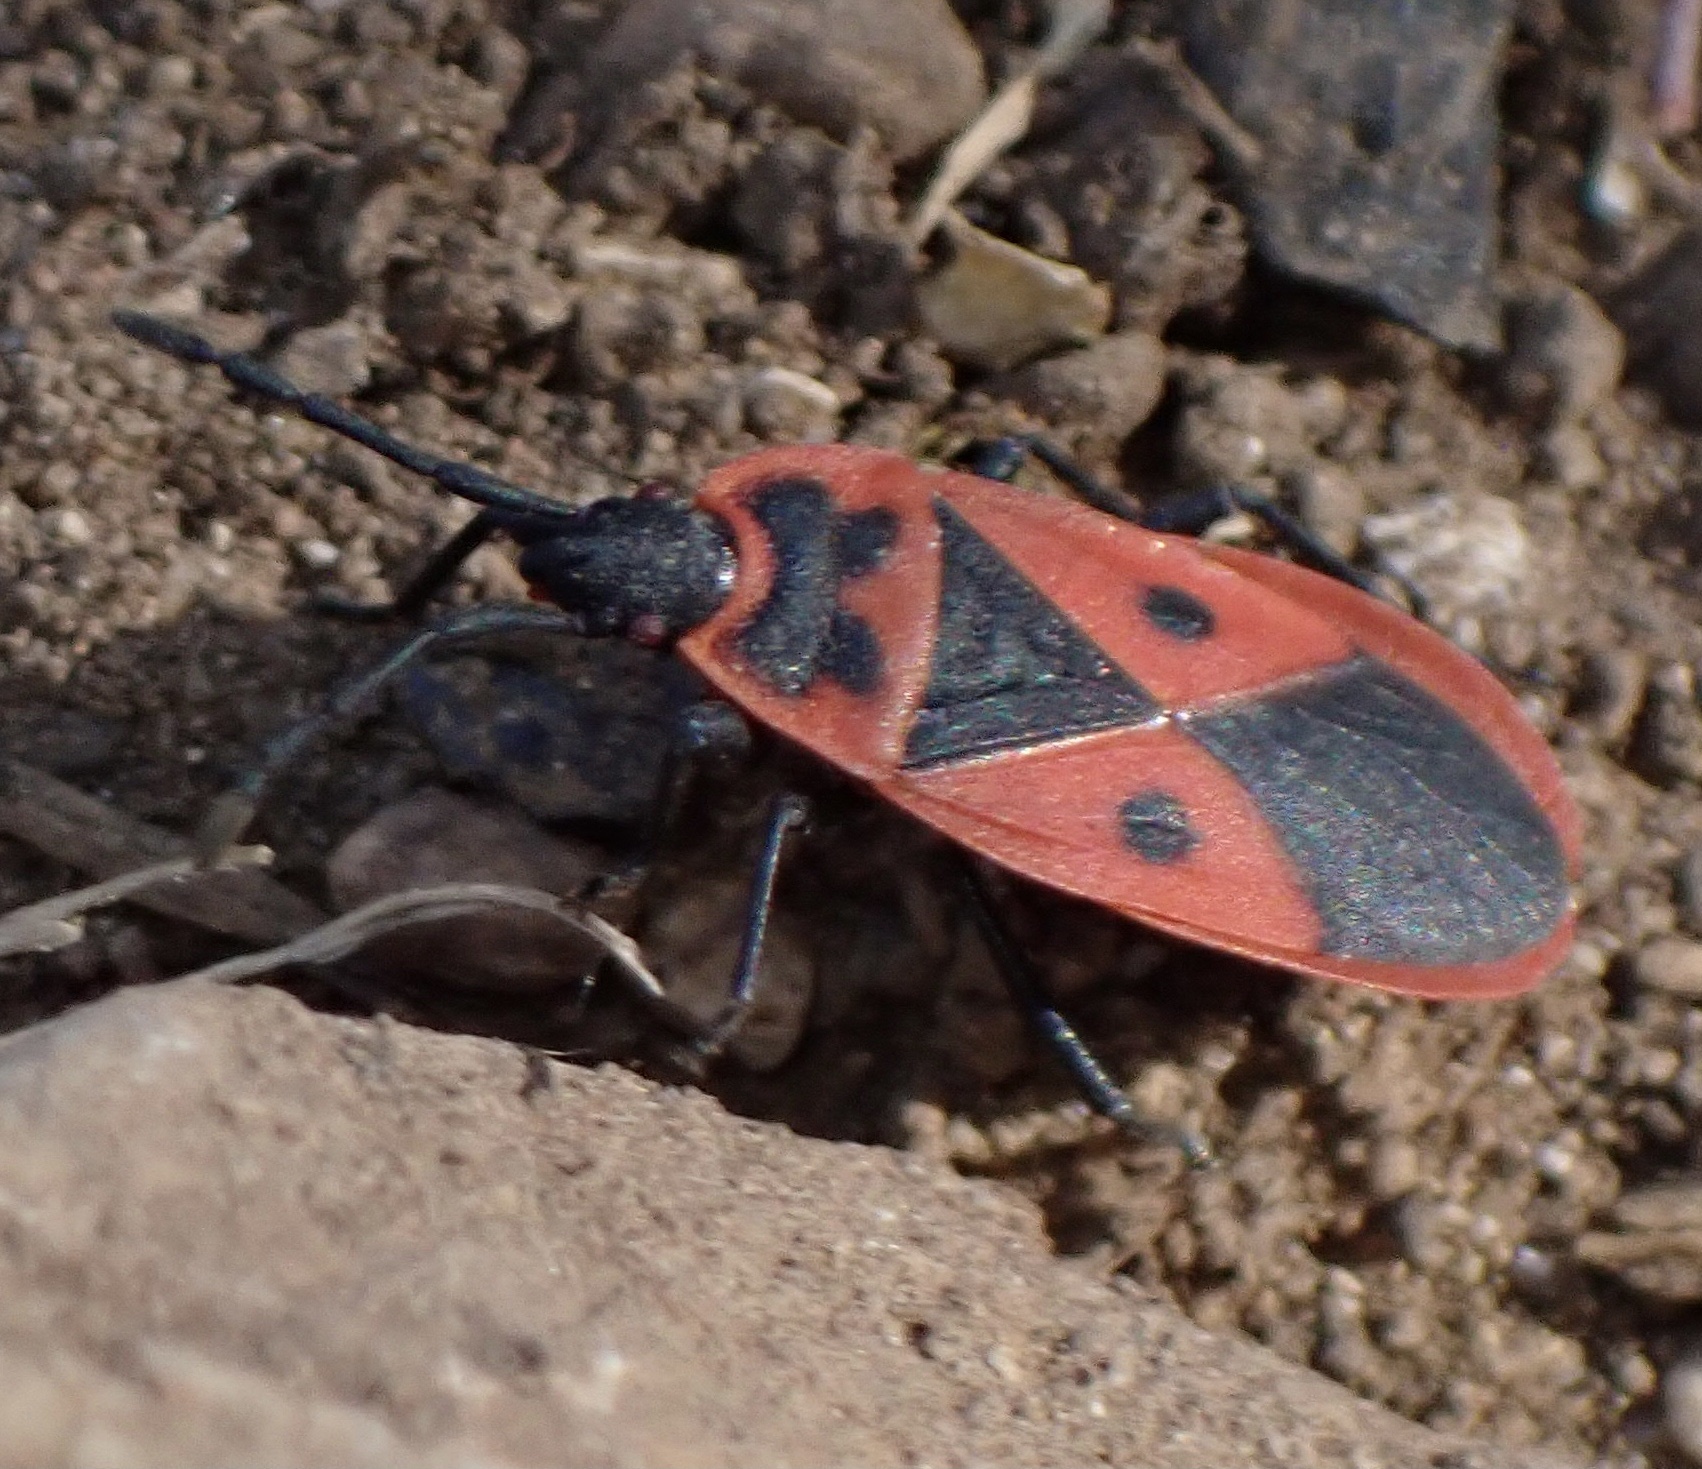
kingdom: Animalia
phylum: Arthropoda
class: Insecta
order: Hemiptera
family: Pyrrhocoridae
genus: Scantius
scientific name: Scantius aegyptius
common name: Red bug
